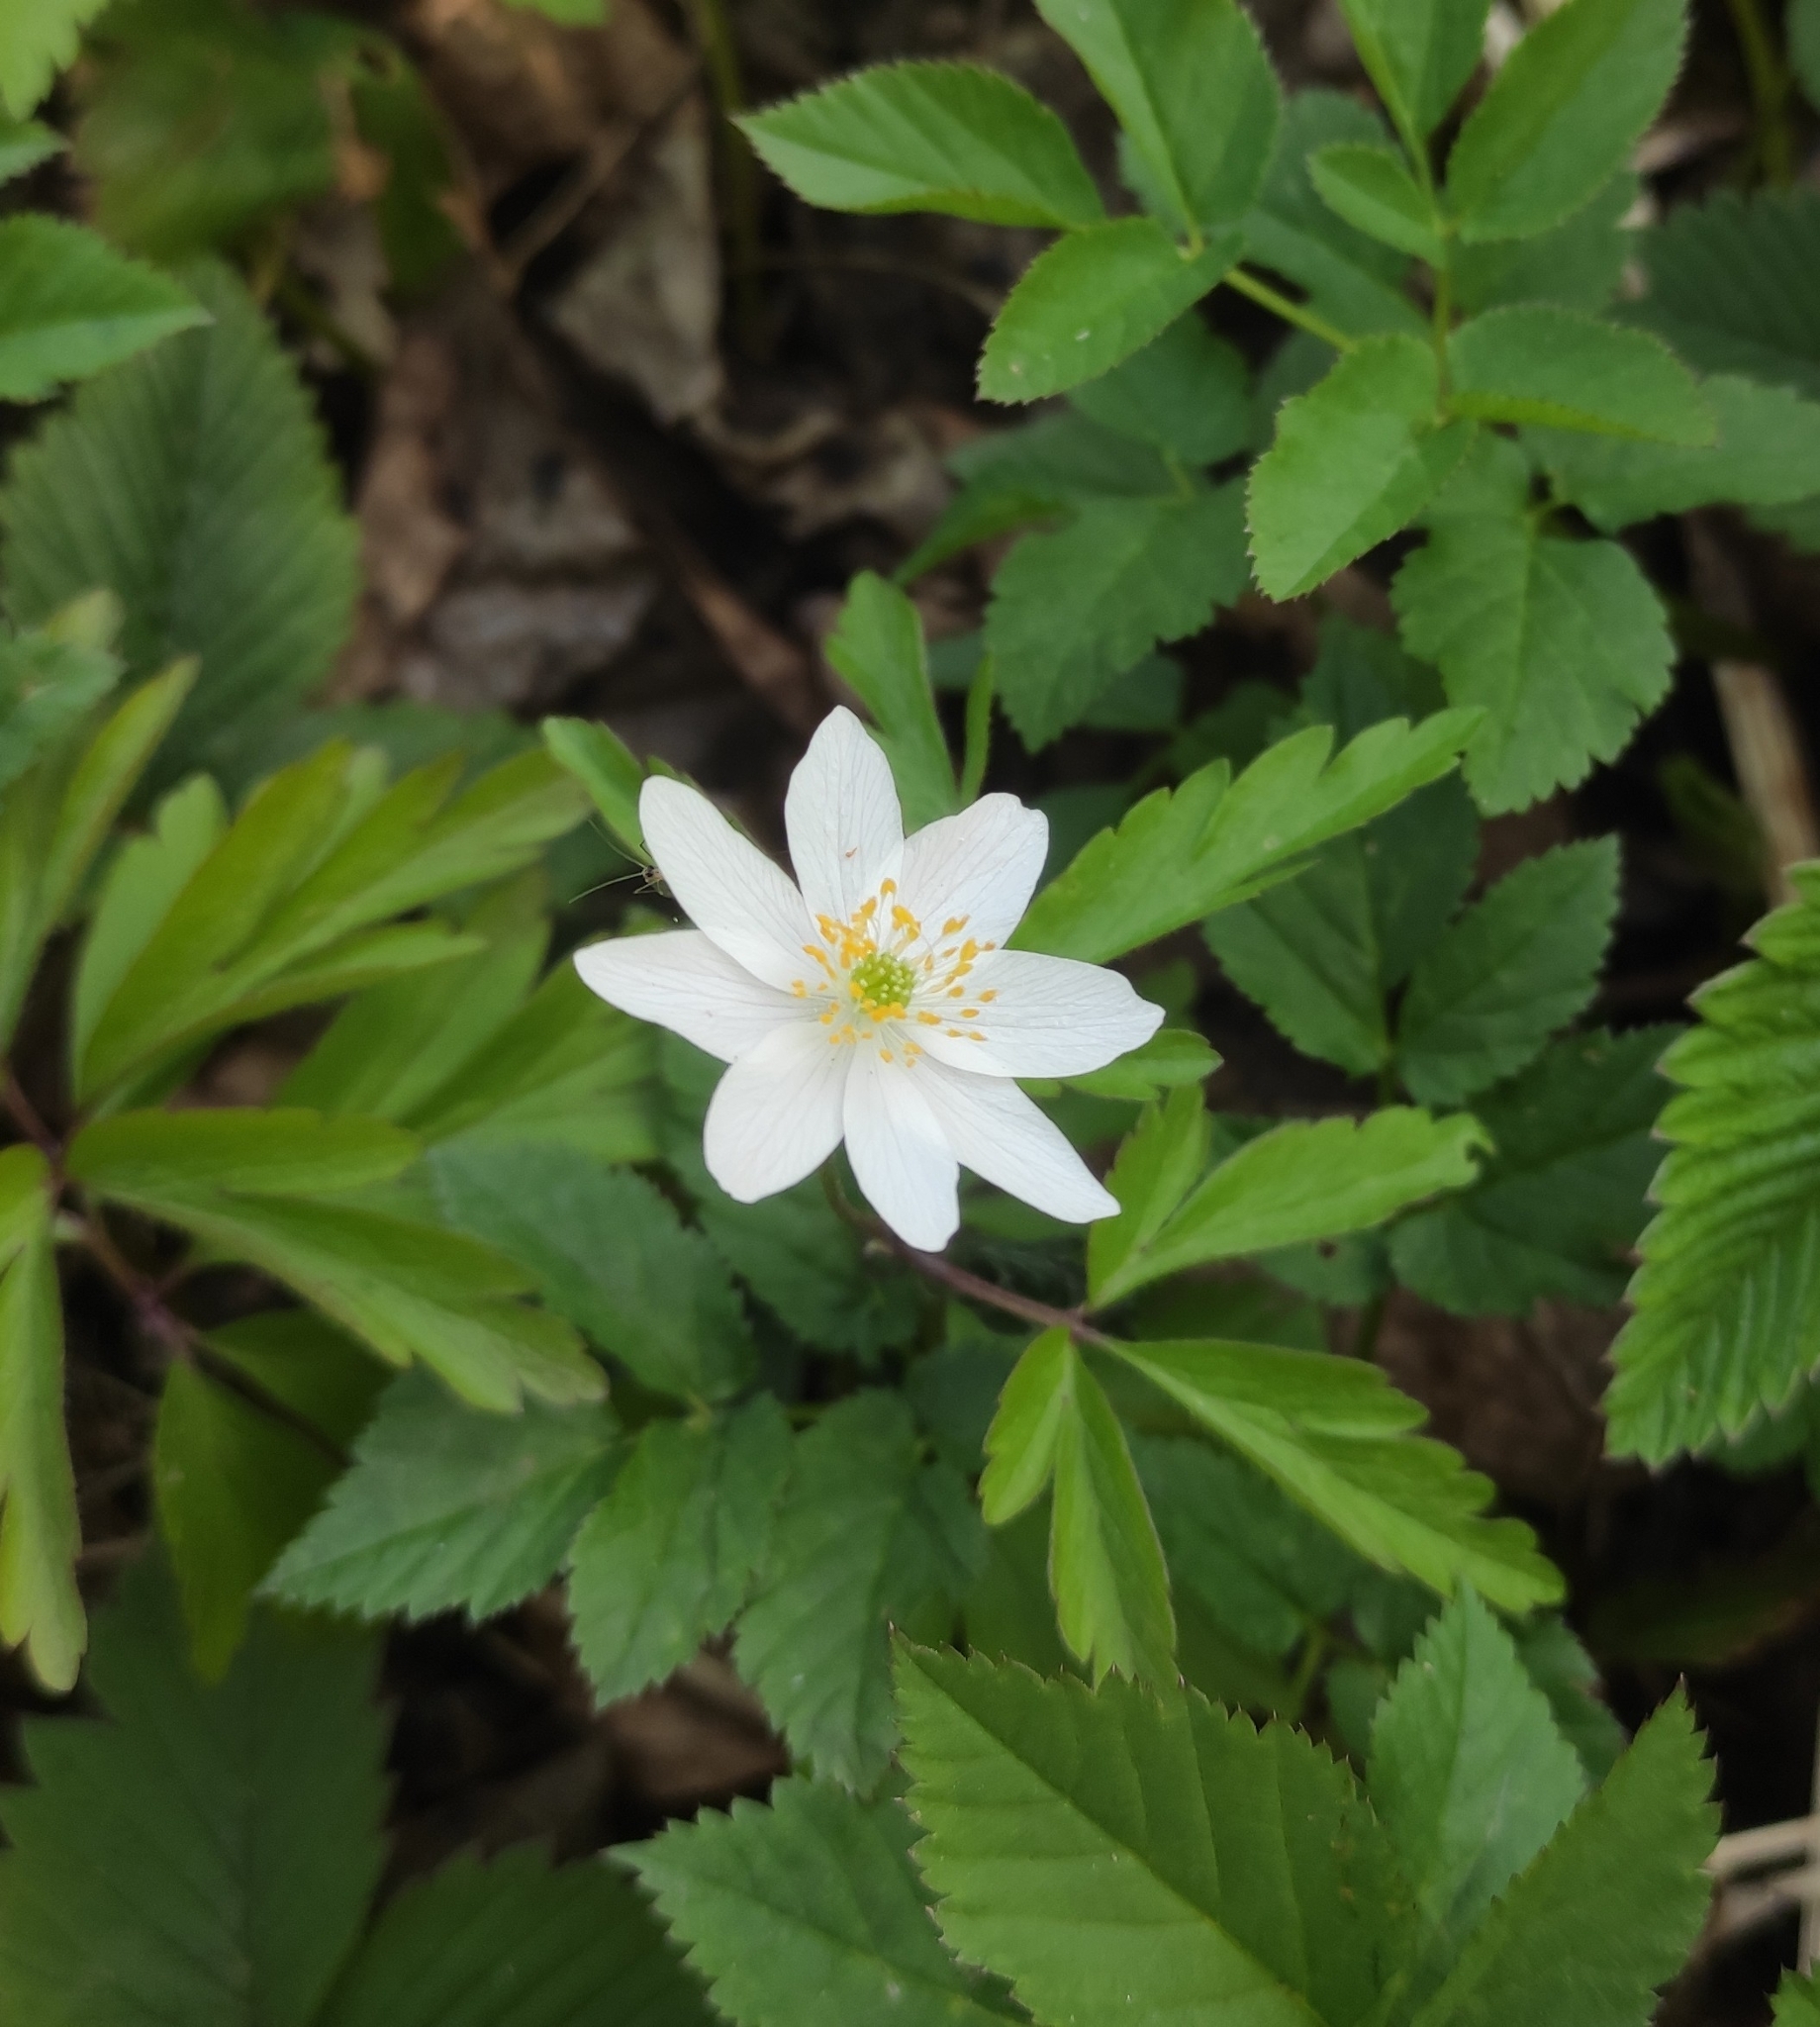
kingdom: Plantae
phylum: Tracheophyta
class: Magnoliopsida
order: Ranunculales
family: Ranunculaceae
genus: Anemone
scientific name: Anemone nemorosa
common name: Wood anemone
